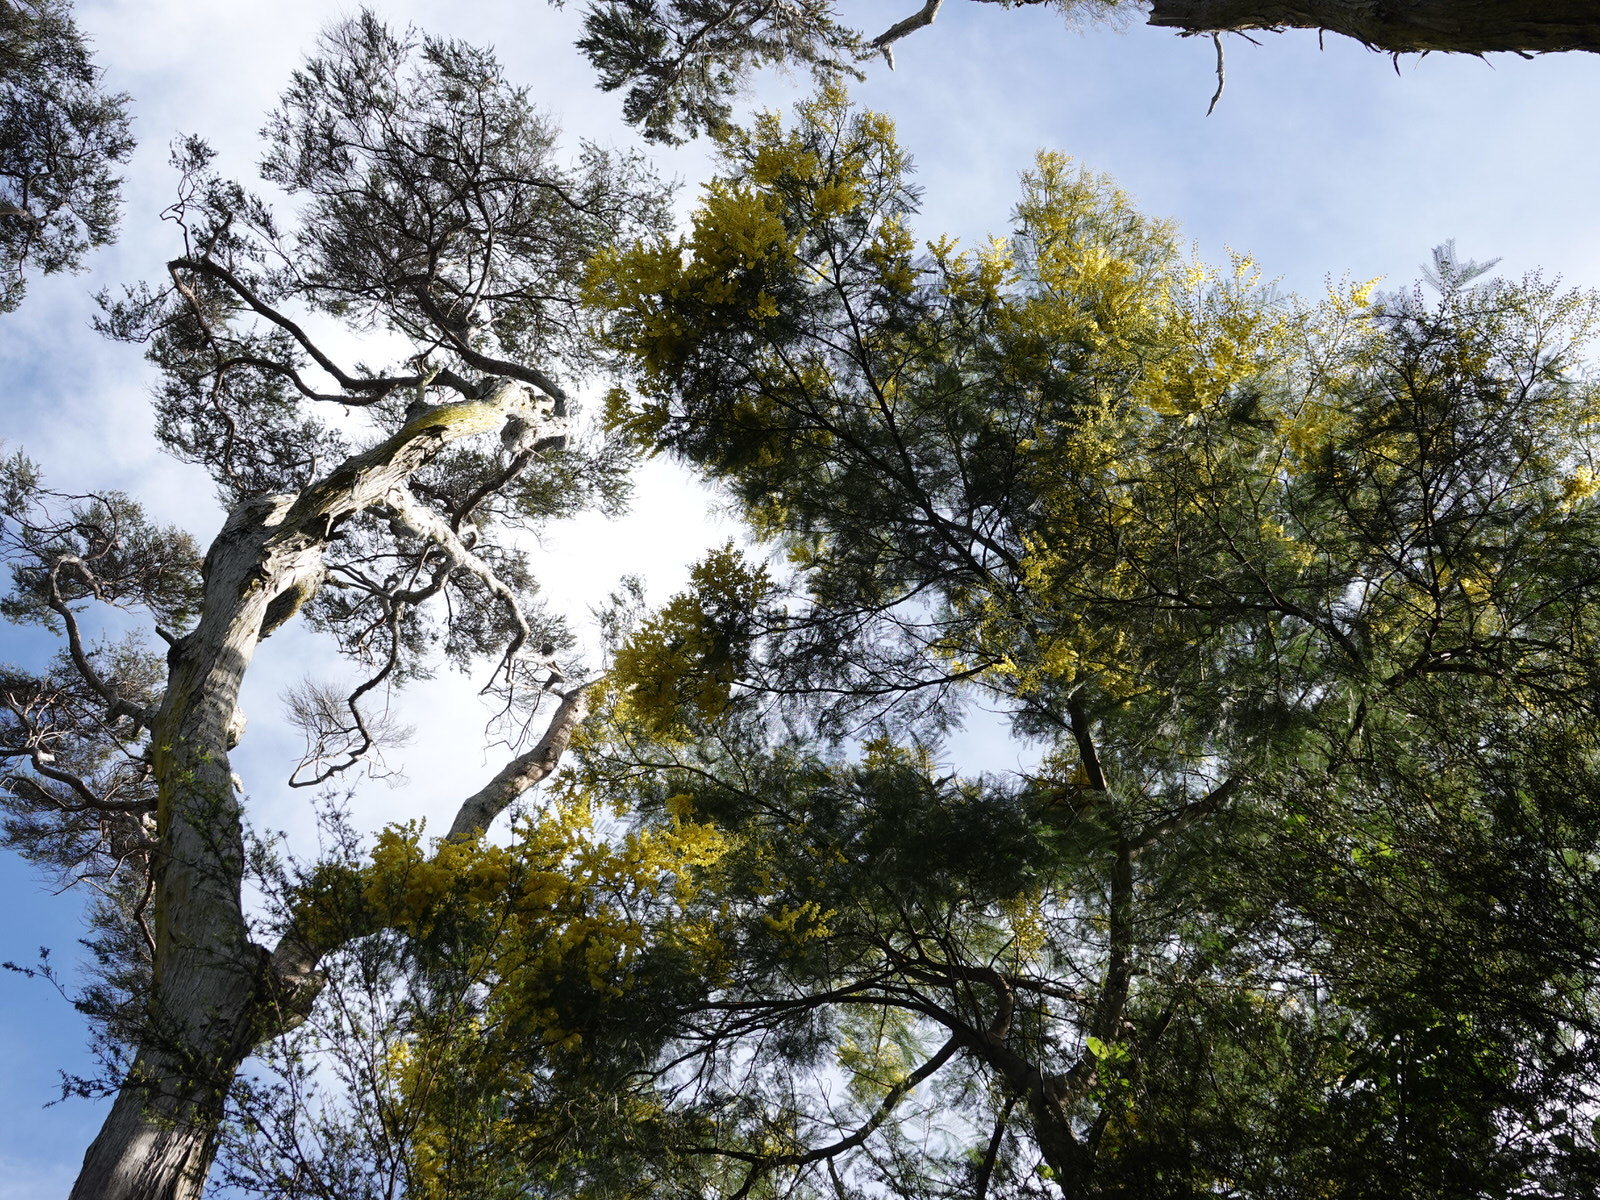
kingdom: Plantae
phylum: Tracheophyta
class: Magnoliopsida
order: Fabales
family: Fabaceae
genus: Acacia
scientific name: Acacia decurrens
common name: Green wattle
